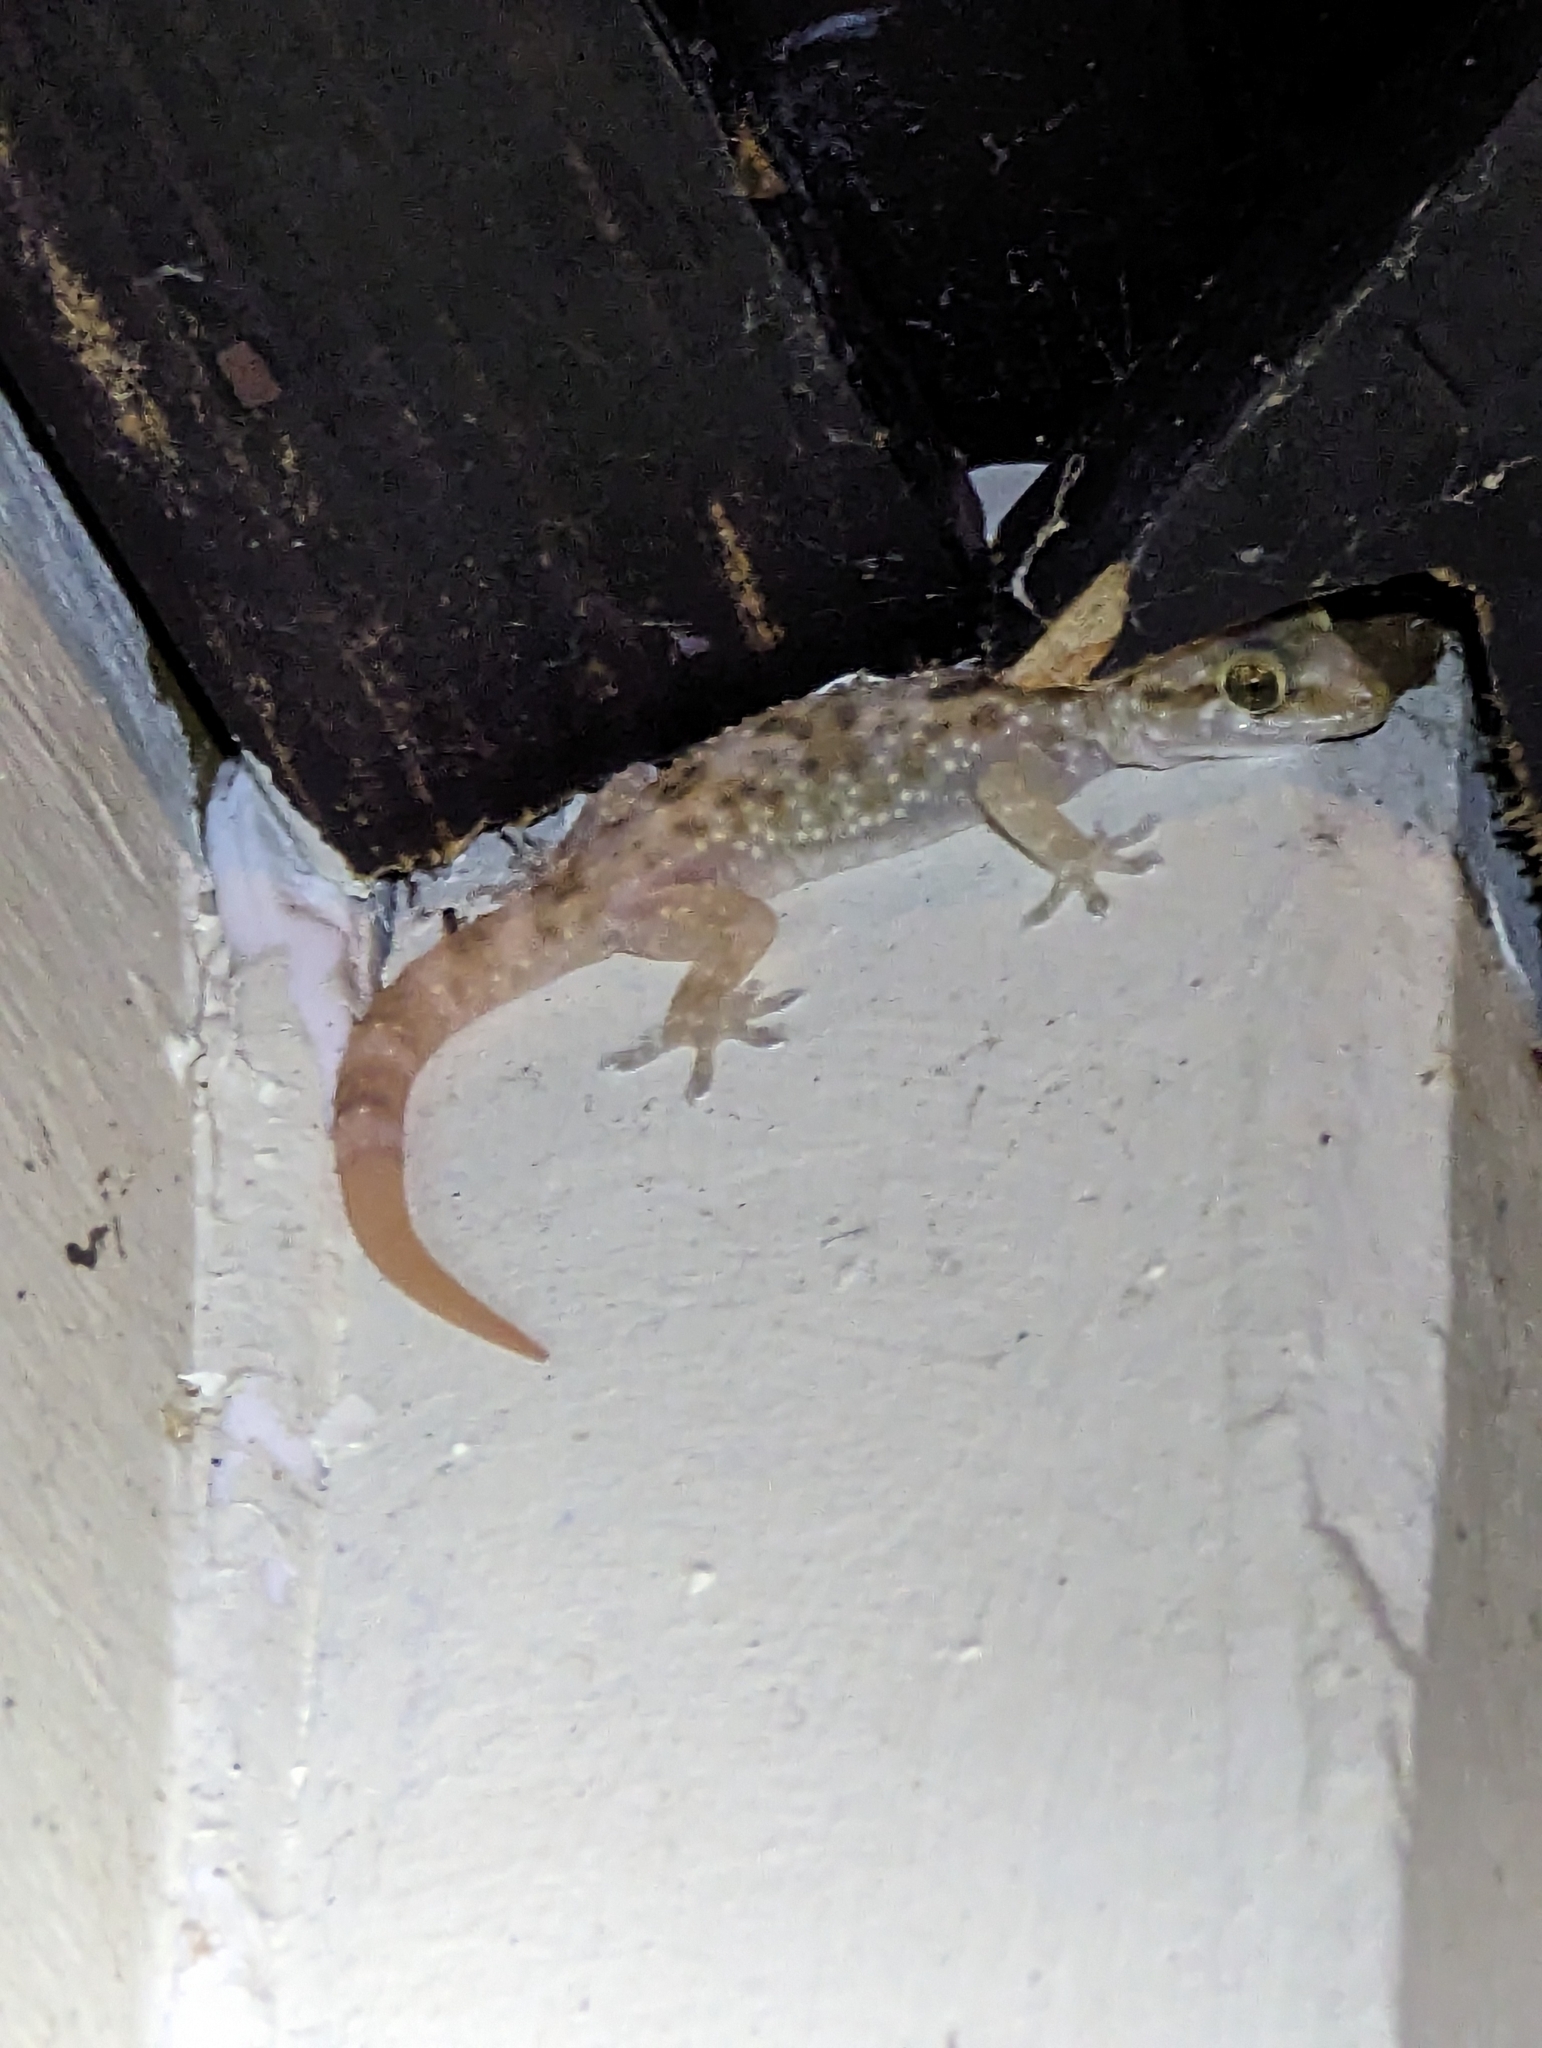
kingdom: Animalia
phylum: Chordata
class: Squamata
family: Gekkonidae
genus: Hemidactylus
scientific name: Hemidactylus turcicus
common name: Turkish gecko
